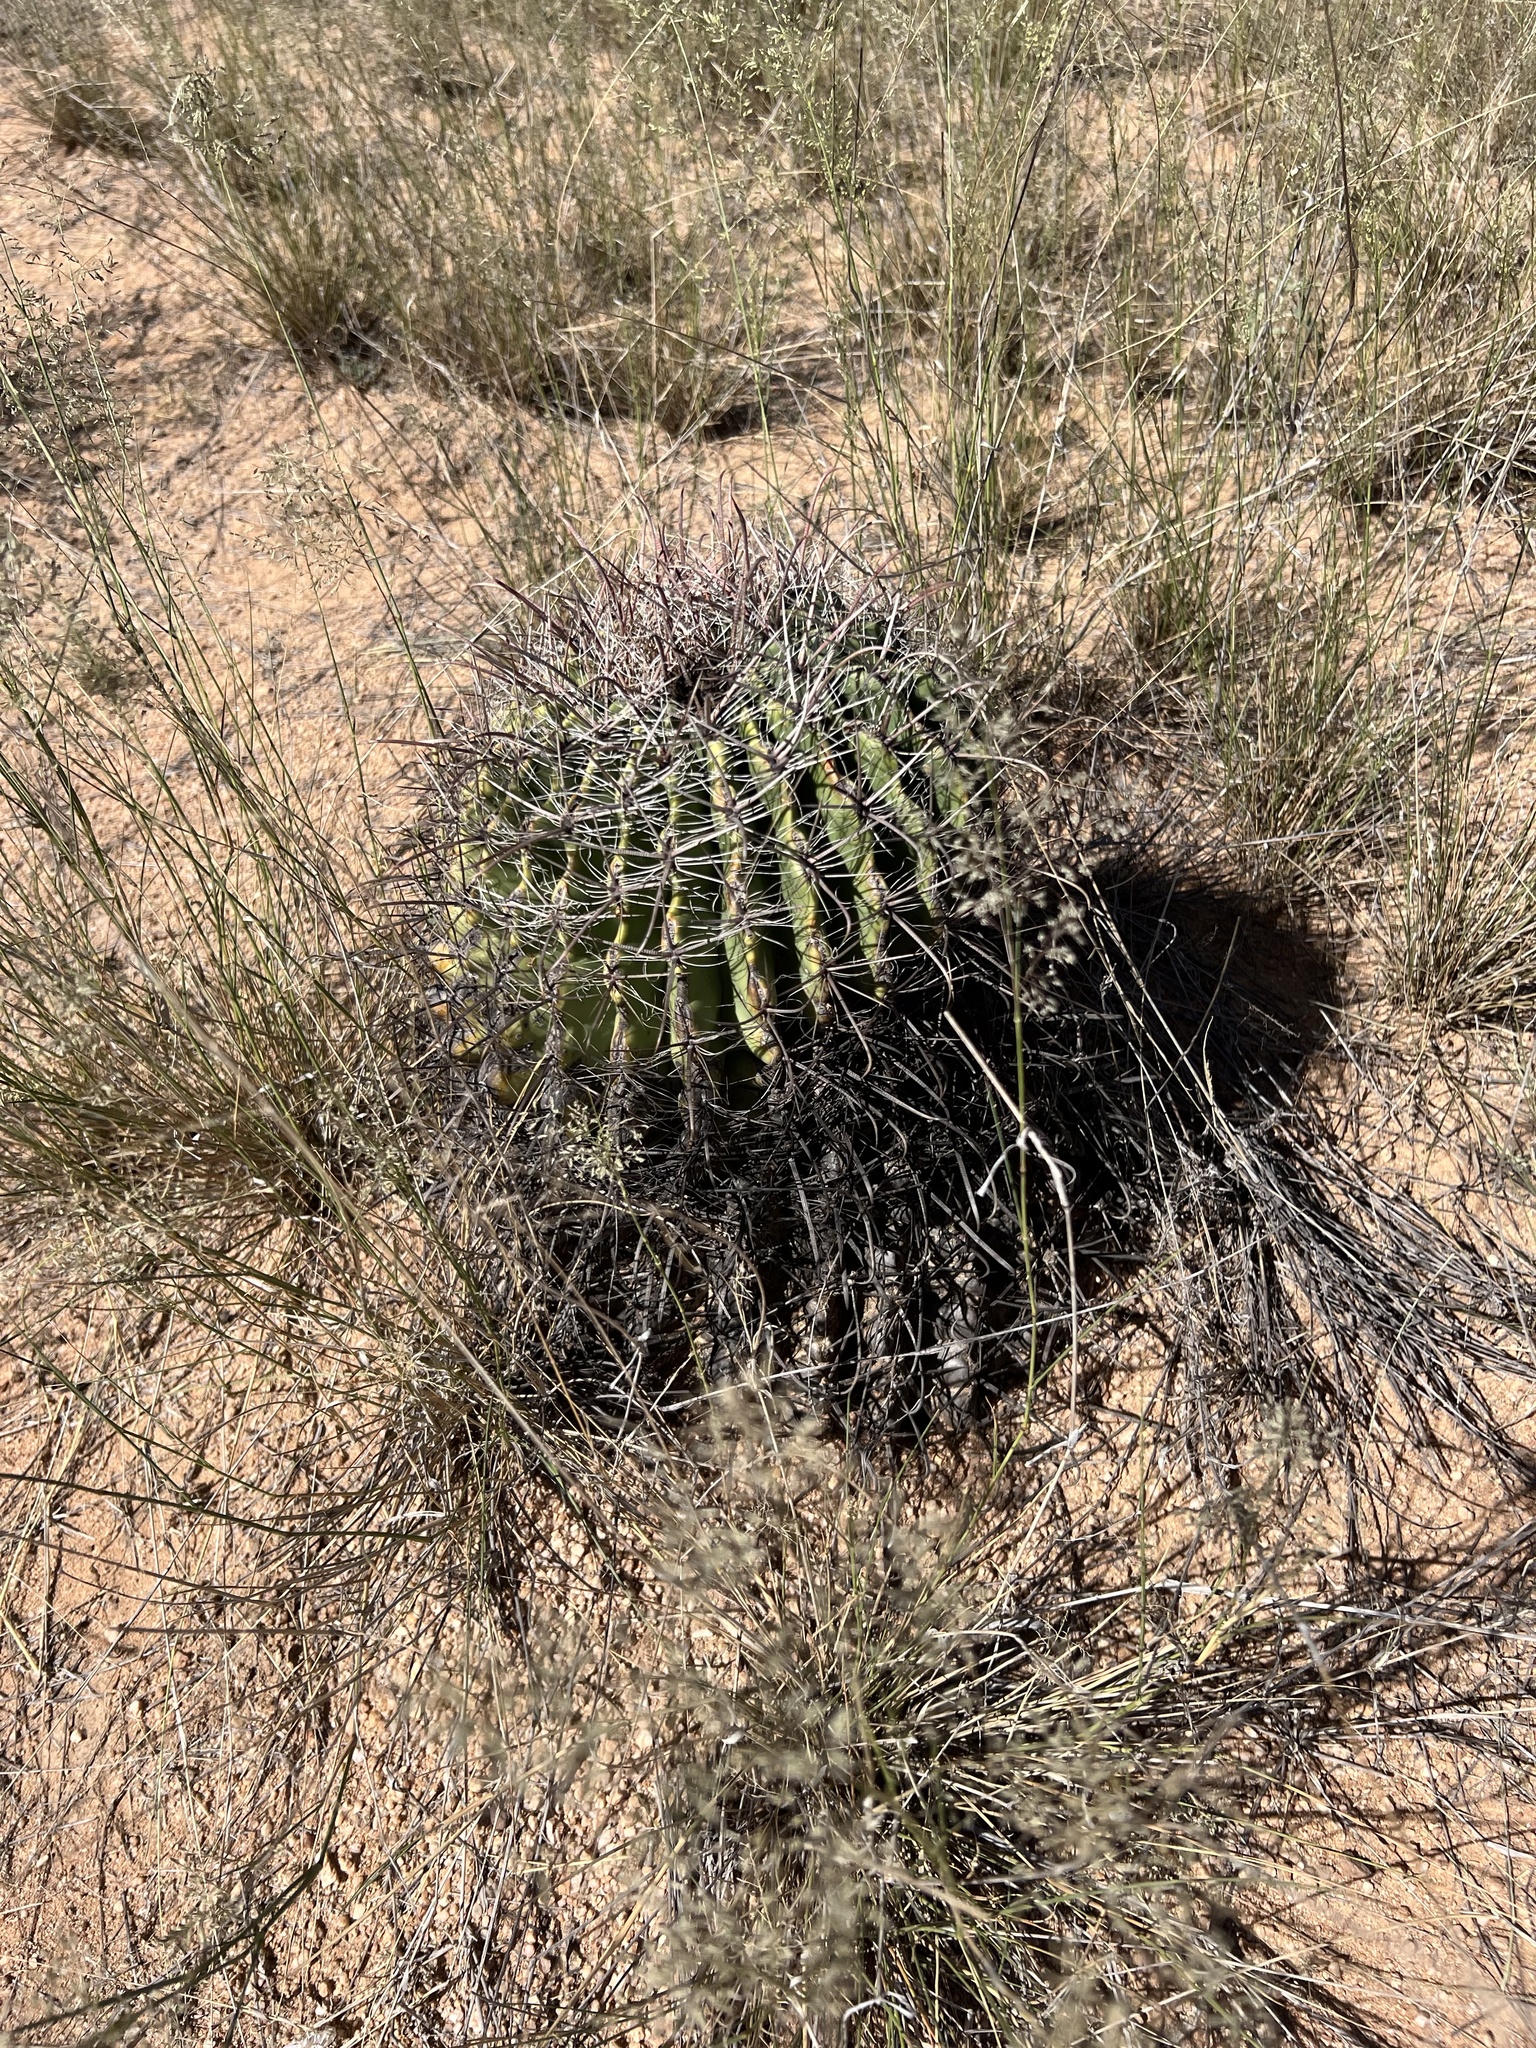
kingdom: Plantae
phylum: Tracheophyta
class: Magnoliopsida
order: Caryophyllales
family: Cactaceae
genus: Ferocactus
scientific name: Ferocactus wislizeni
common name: Candy barrel cactus
